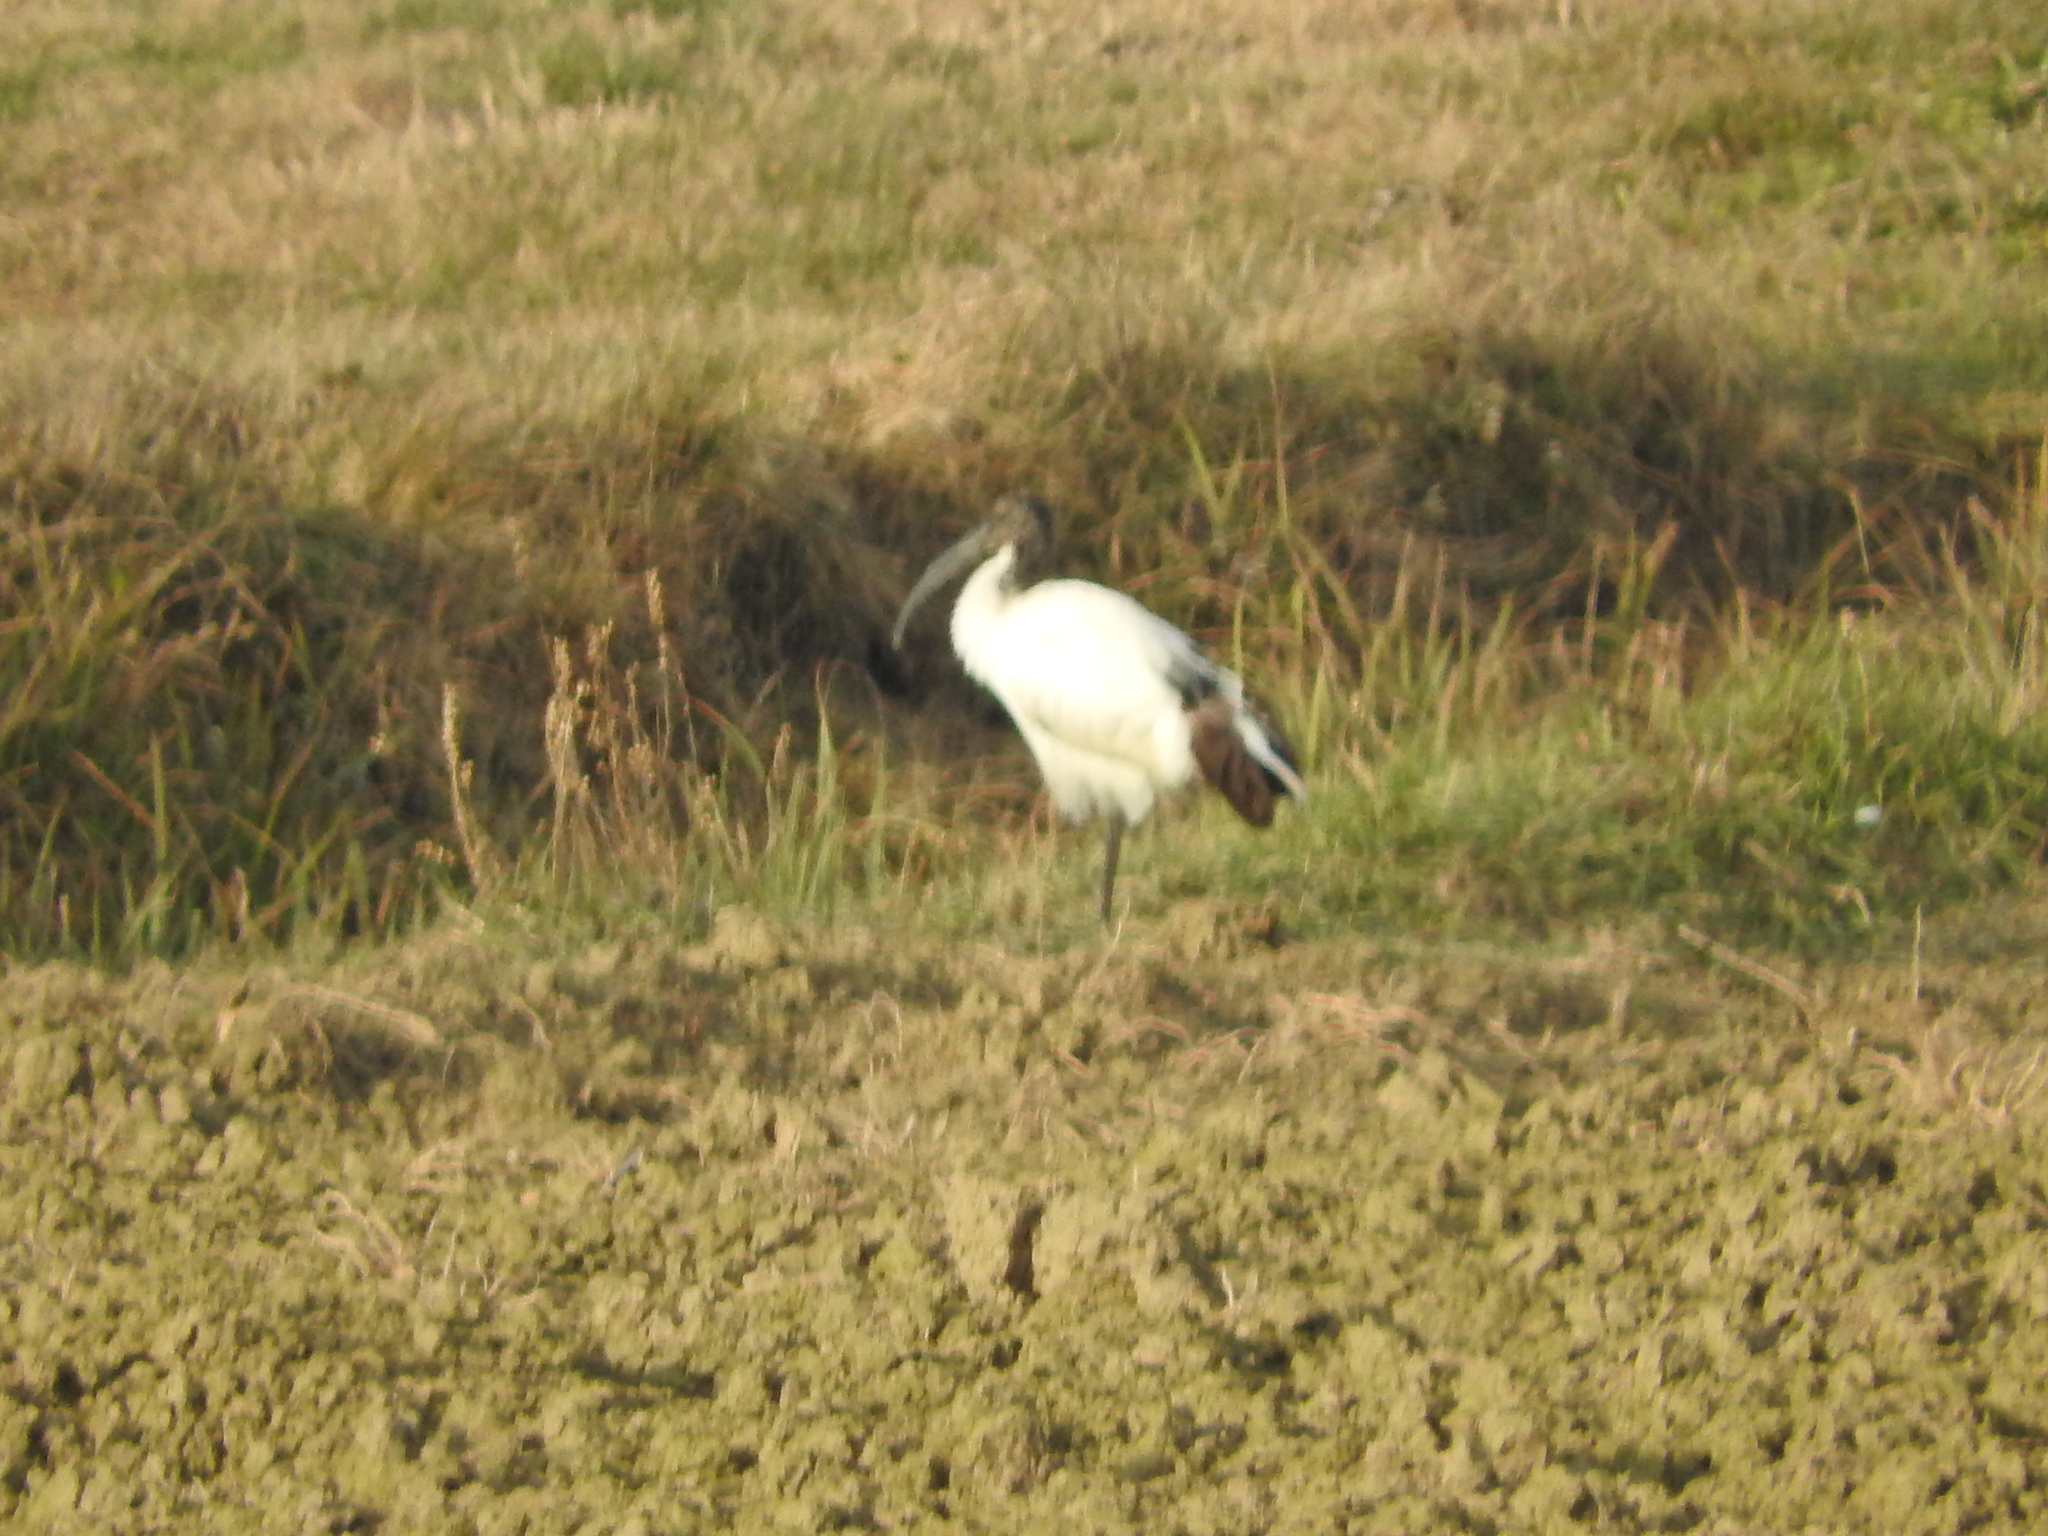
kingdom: Animalia
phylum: Chordata
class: Aves
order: Pelecaniformes
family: Threskiornithidae
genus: Threskiornis
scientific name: Threskiornis aethiopicus
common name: Sacred ibis
